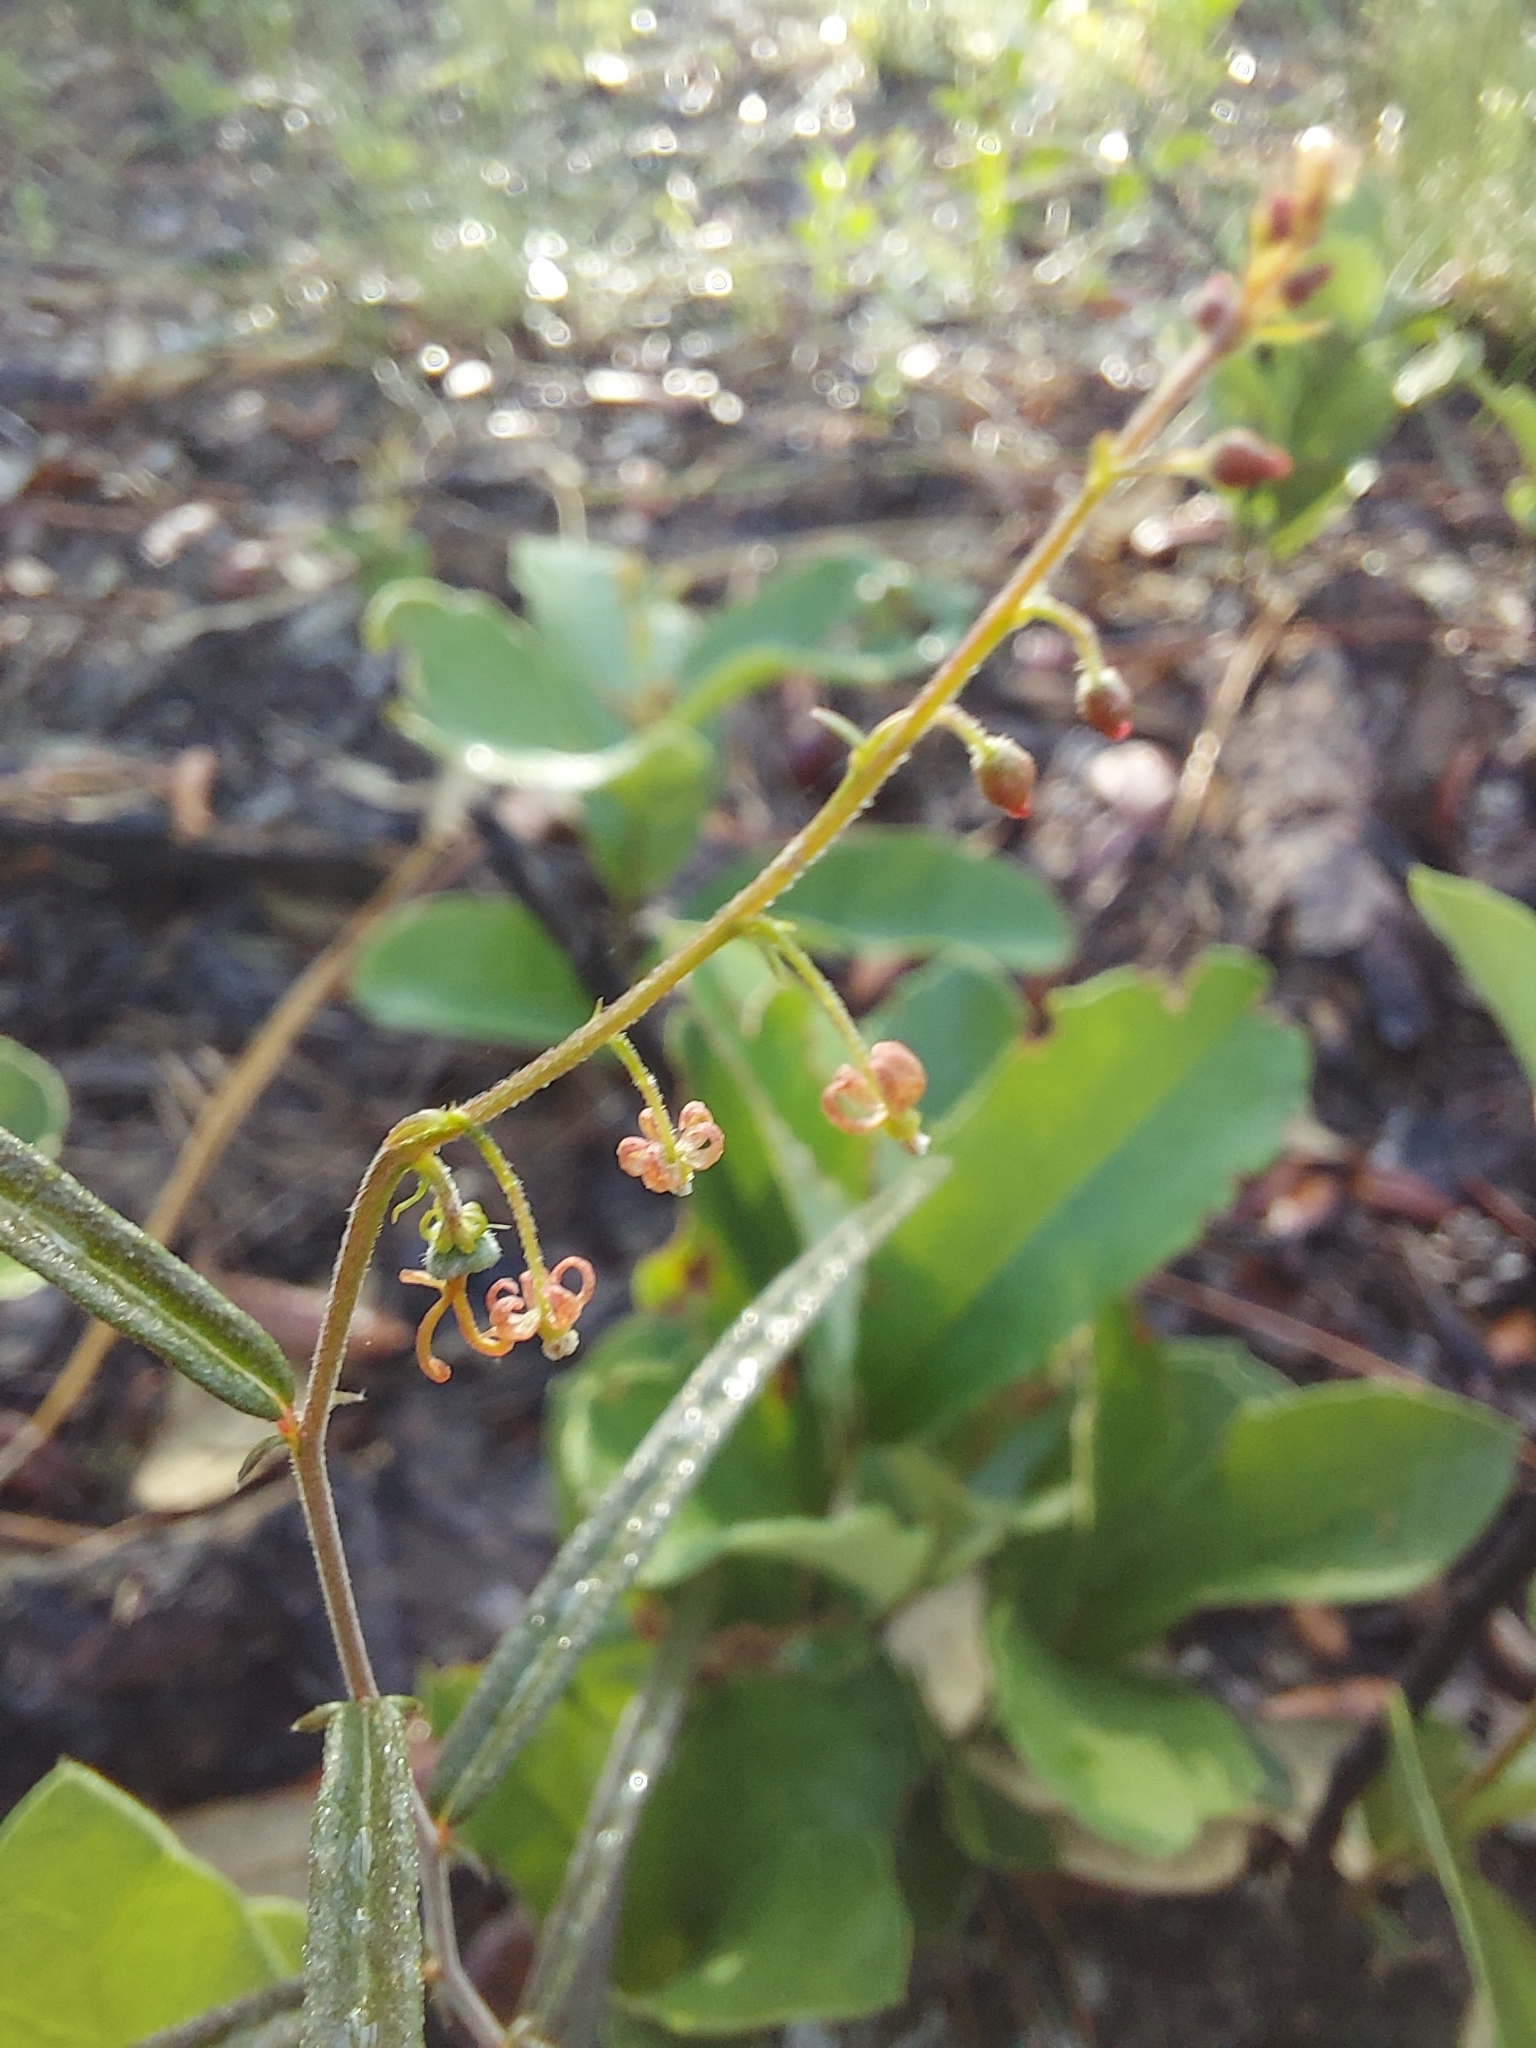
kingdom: Plantae
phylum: Tracheophyta
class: Magnoliopsida
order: Malpighiales
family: Euphorbiaceae
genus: Tragia
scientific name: Tragia urens
